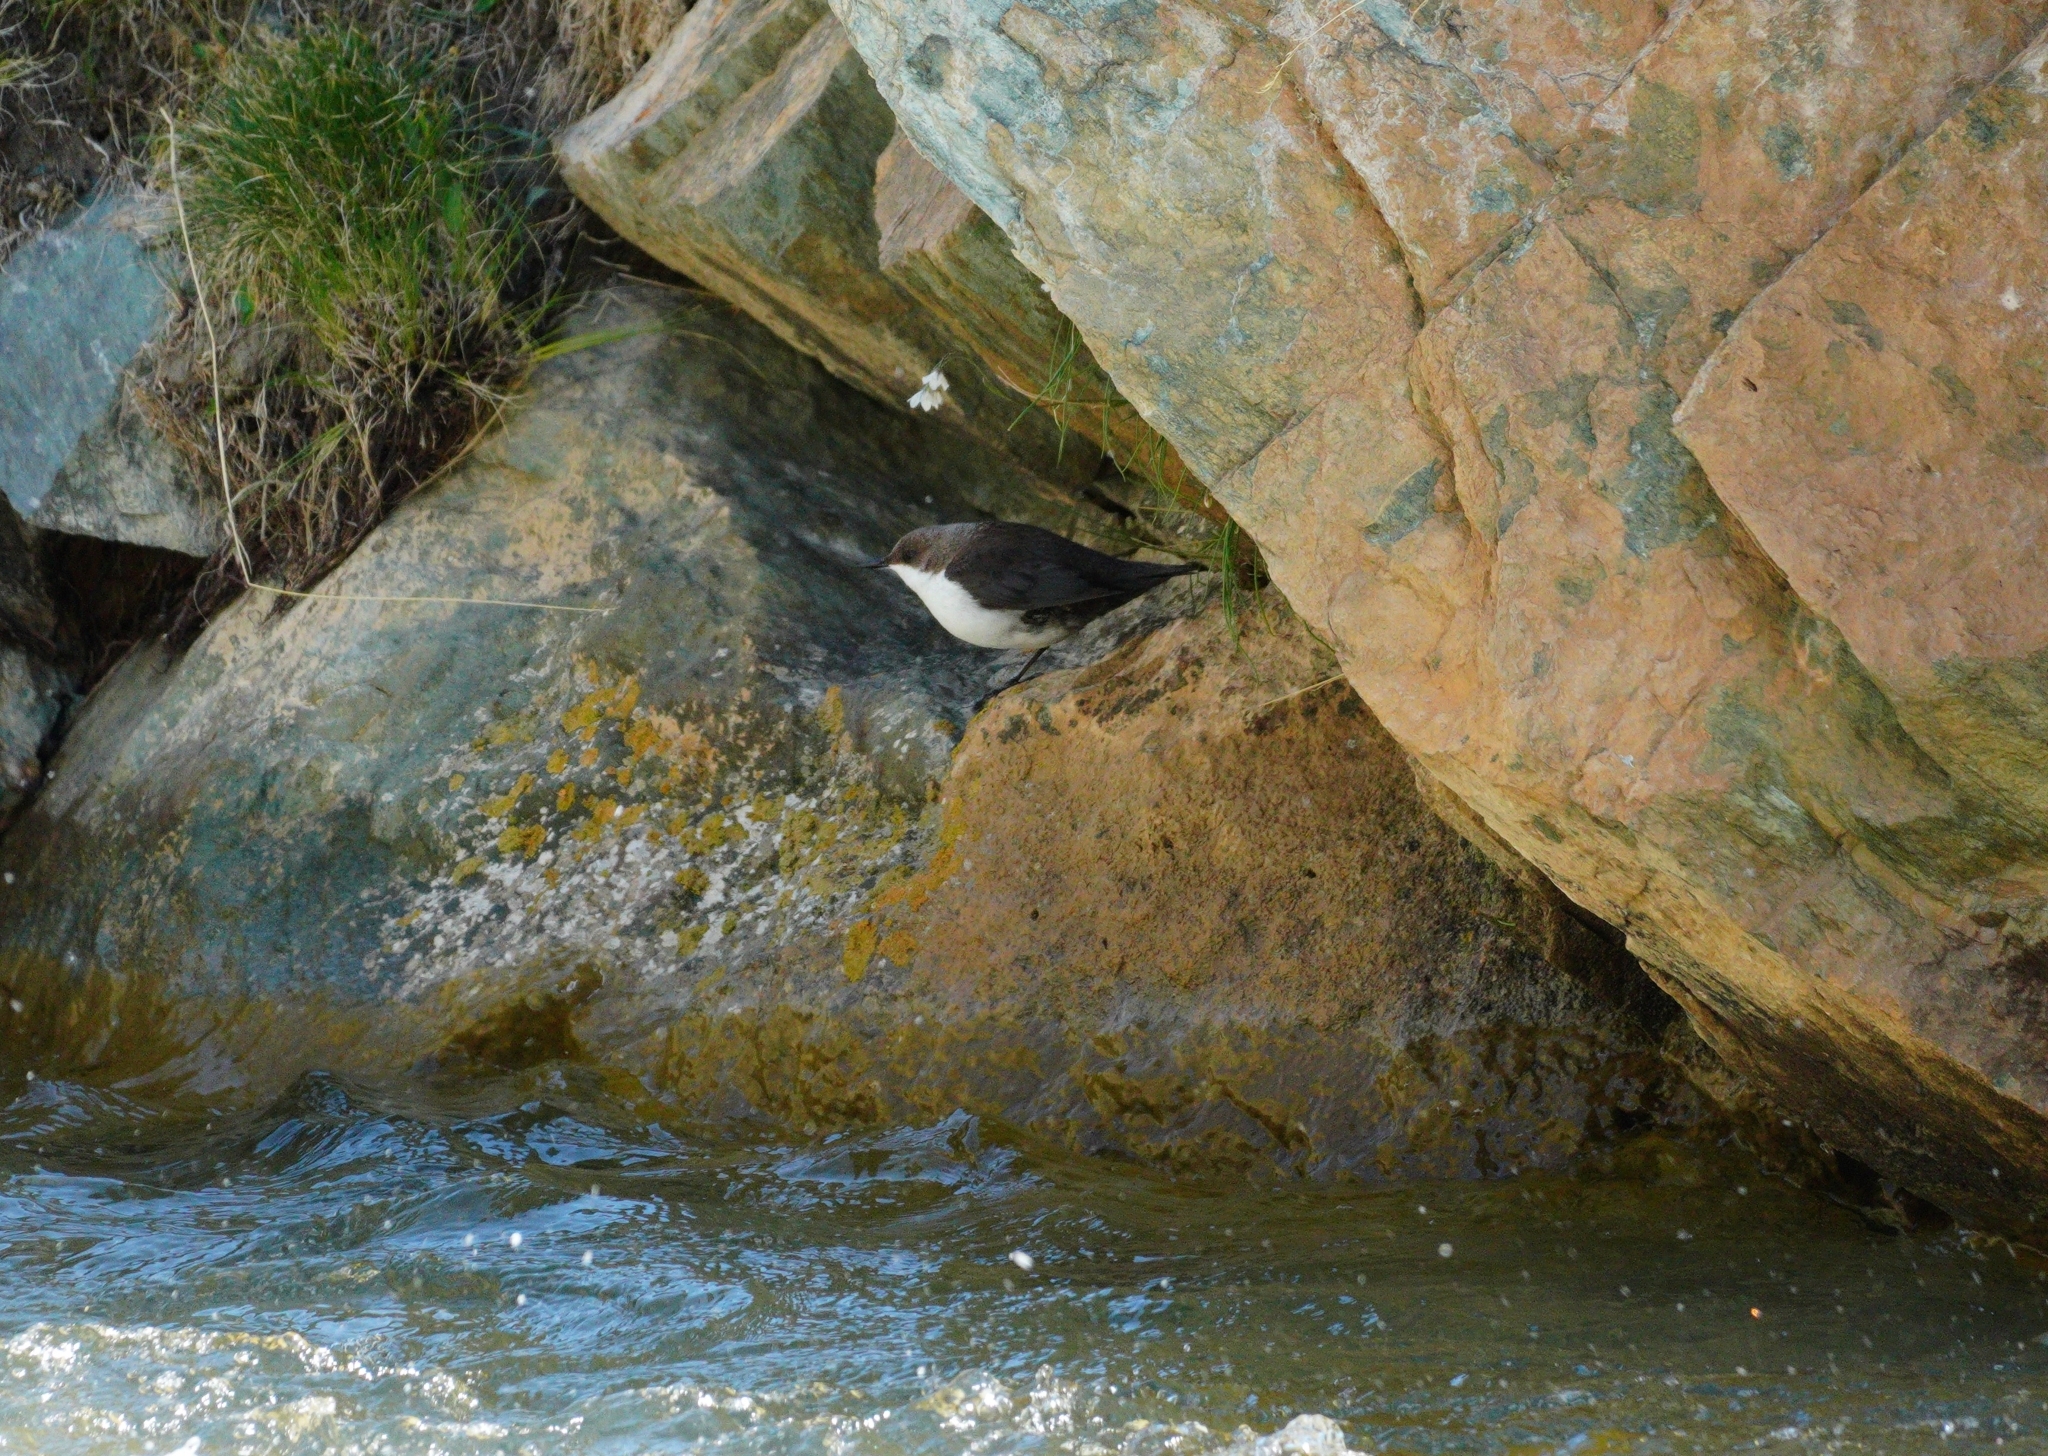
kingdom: Animalia
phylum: Chordata
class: Aves
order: Passeriformes
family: Cinclidae
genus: Cinclus
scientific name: Cinclus cinclus
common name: White-throated dipper
